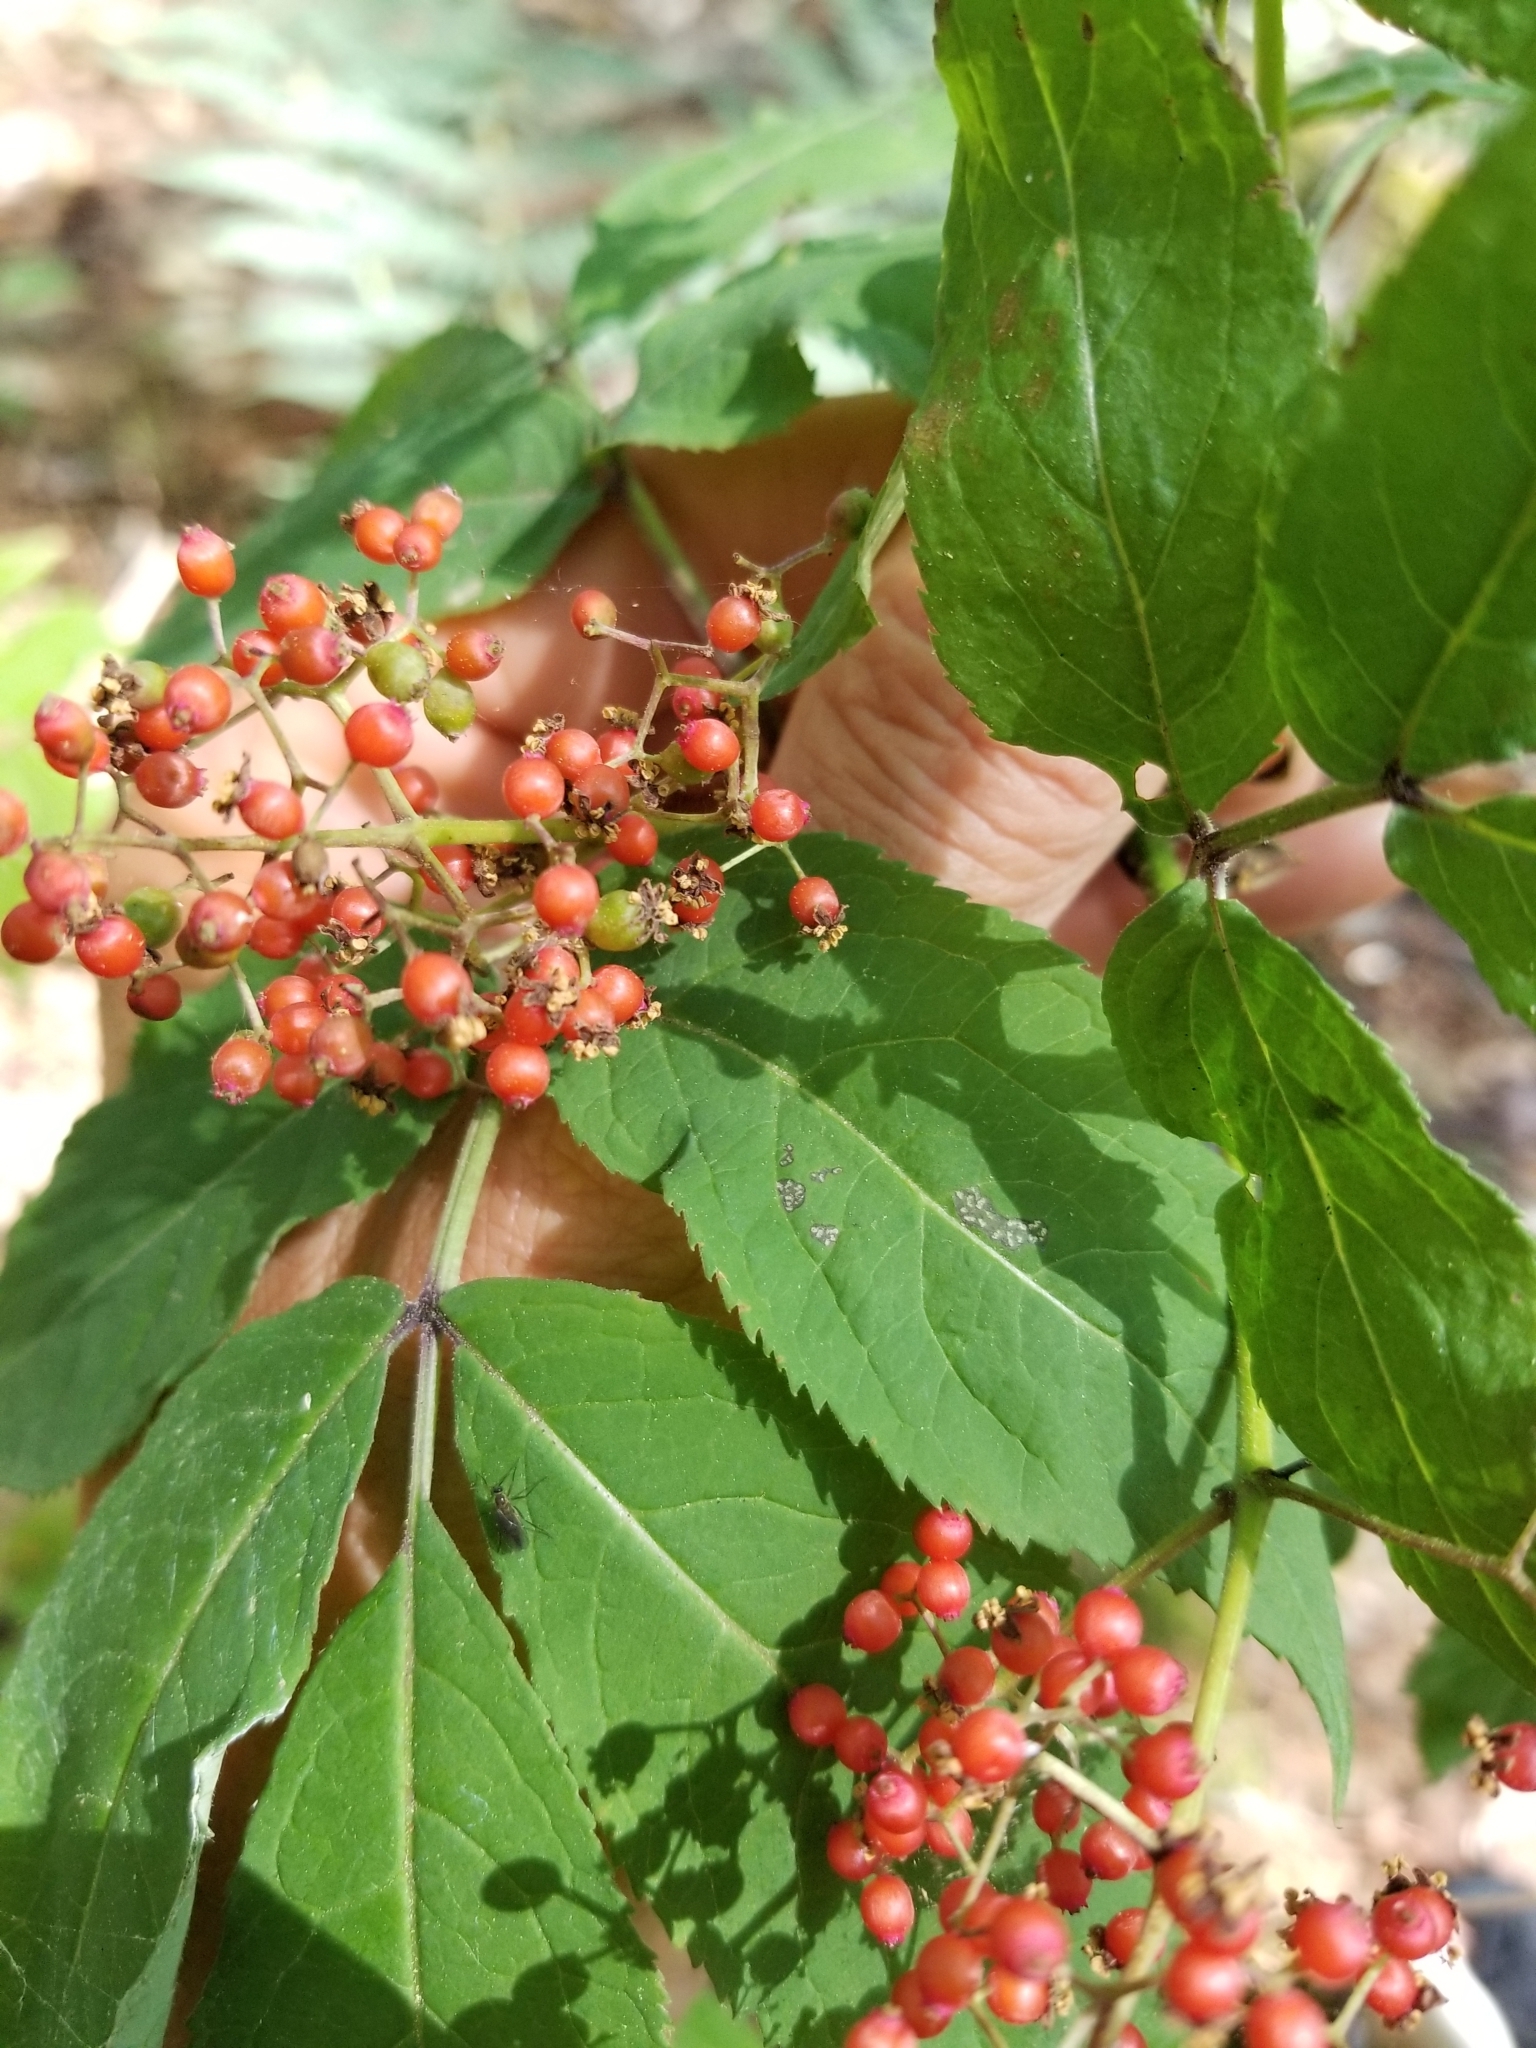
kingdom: Plantae
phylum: Tracheophyta
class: Magnoliopsida
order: Dipsacales
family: Viburnaceae
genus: Sambucus
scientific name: Sambucus racemosa
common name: Red-berried elder
